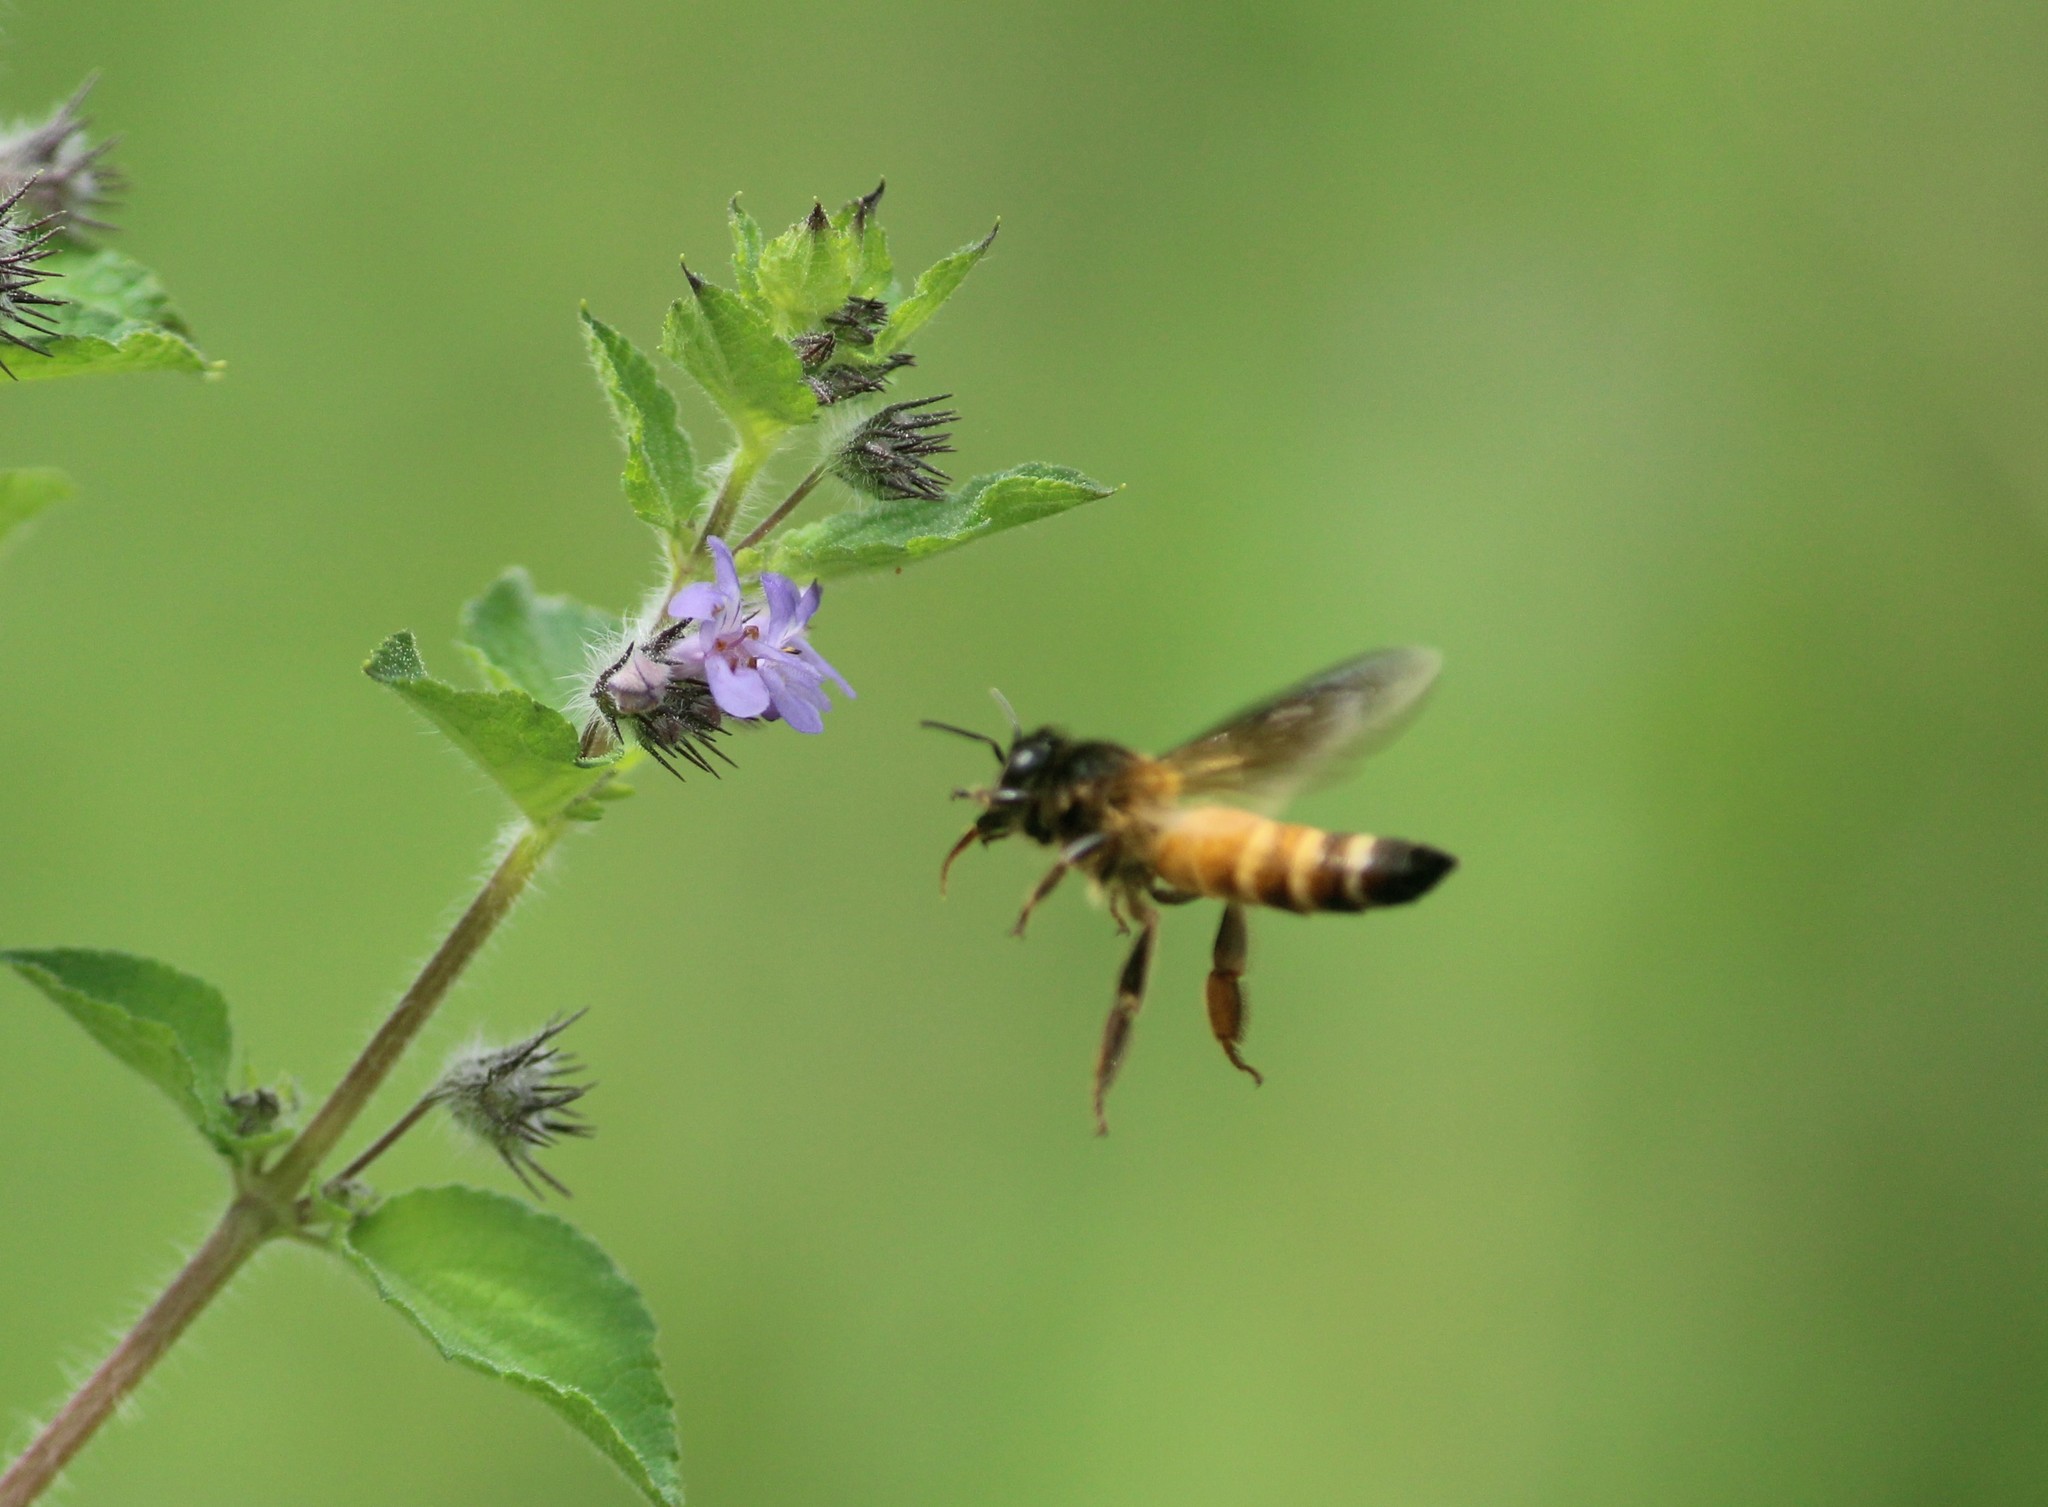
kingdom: Animalia
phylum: Arthropoda
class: Insecta
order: Hymenoptera
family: Apidae
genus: Apis
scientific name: Apis dorsata
